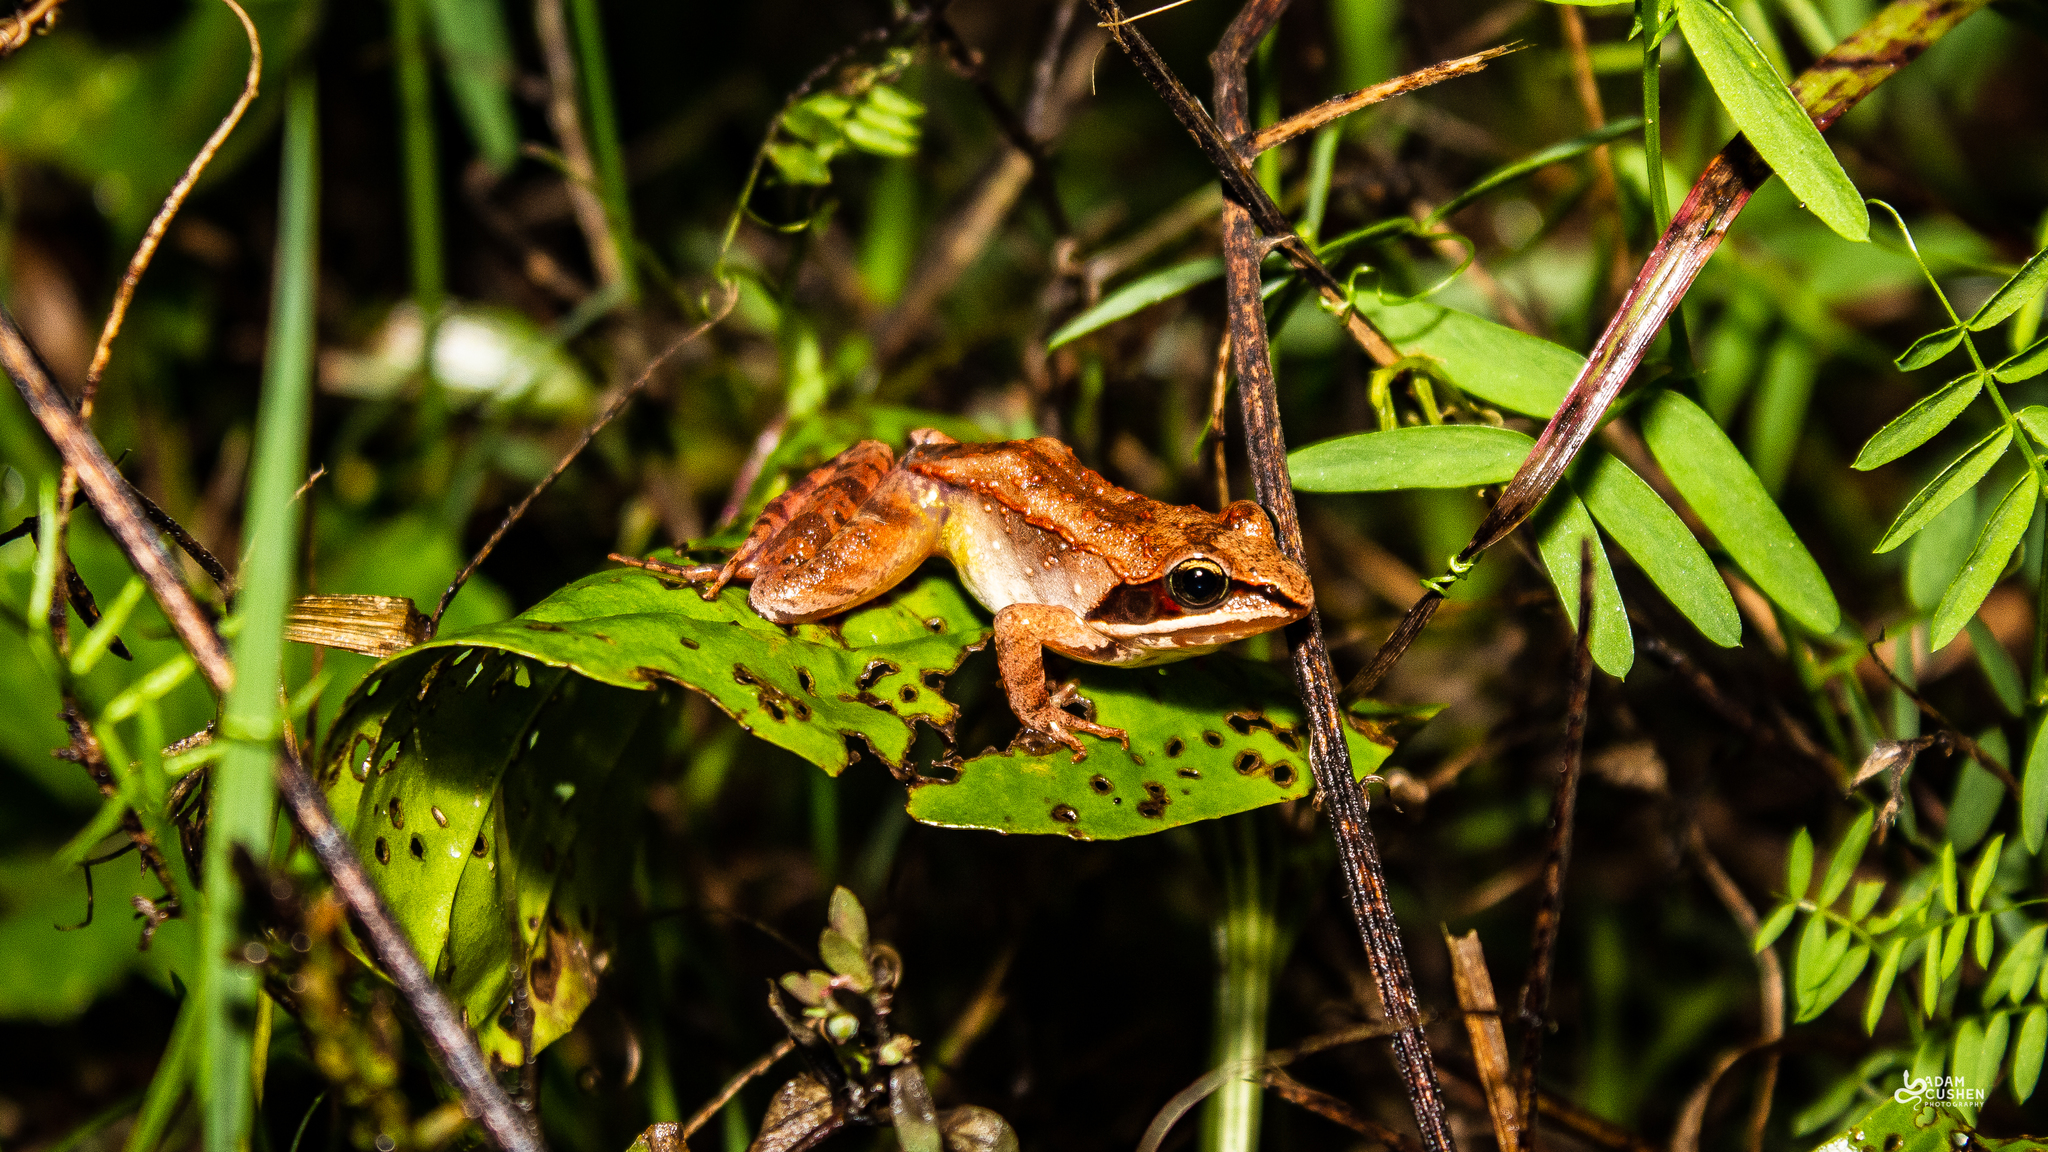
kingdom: Animalia
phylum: Chordata
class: Amphibia
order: Anura
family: Ranidae
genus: Lithobates
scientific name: Lithobates sylvaticus
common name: Wood frog
